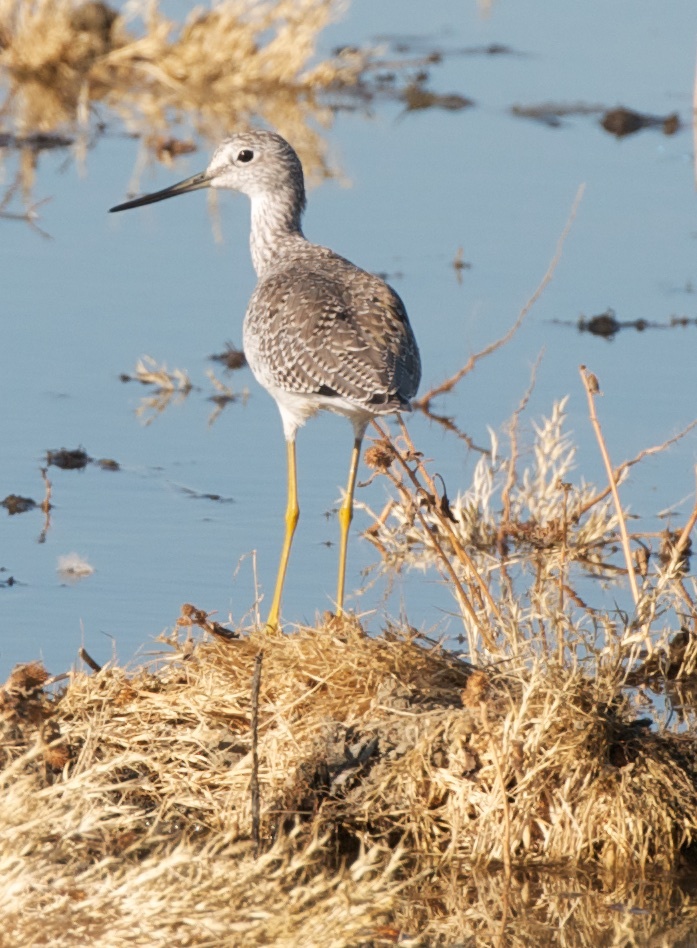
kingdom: Animalia
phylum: Chordata
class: Aves
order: Charadriiformes
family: Scolopacidae
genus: Tringa
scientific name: Tringa melanoleuca
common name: Greater yellowlegs
